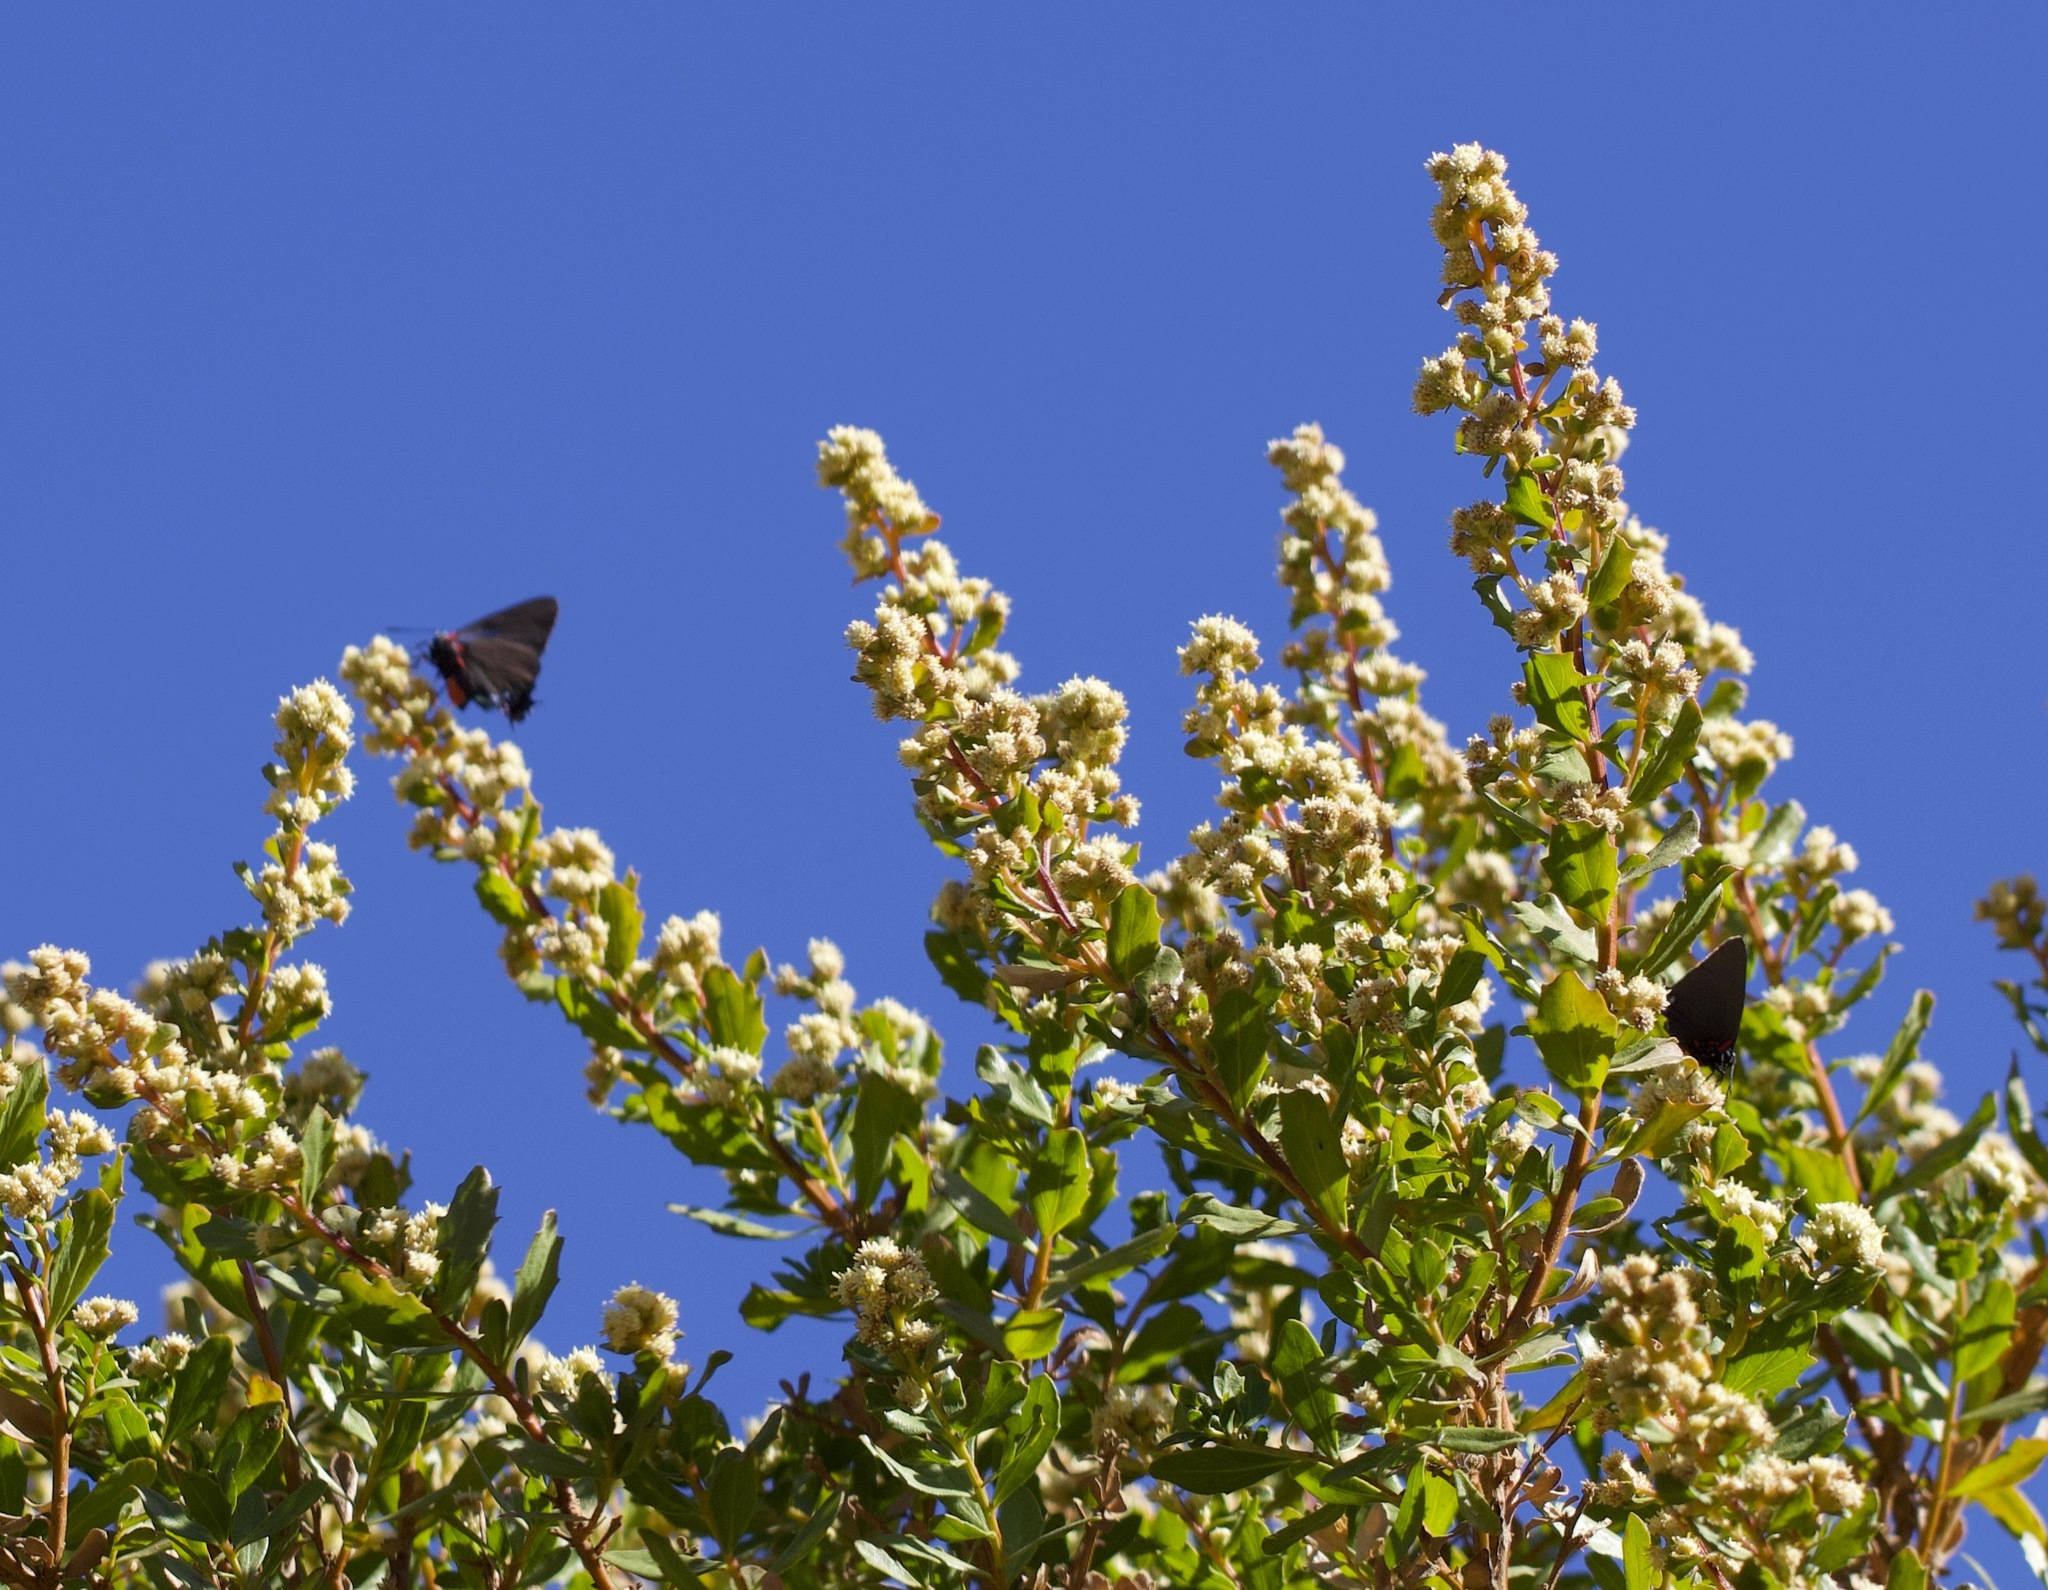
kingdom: Animalia
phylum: Arthropoda
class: Insecta
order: Lepidoptera
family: Lycaenidae
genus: Atlides
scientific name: Atlides halesus
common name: Great purple hairstreak
